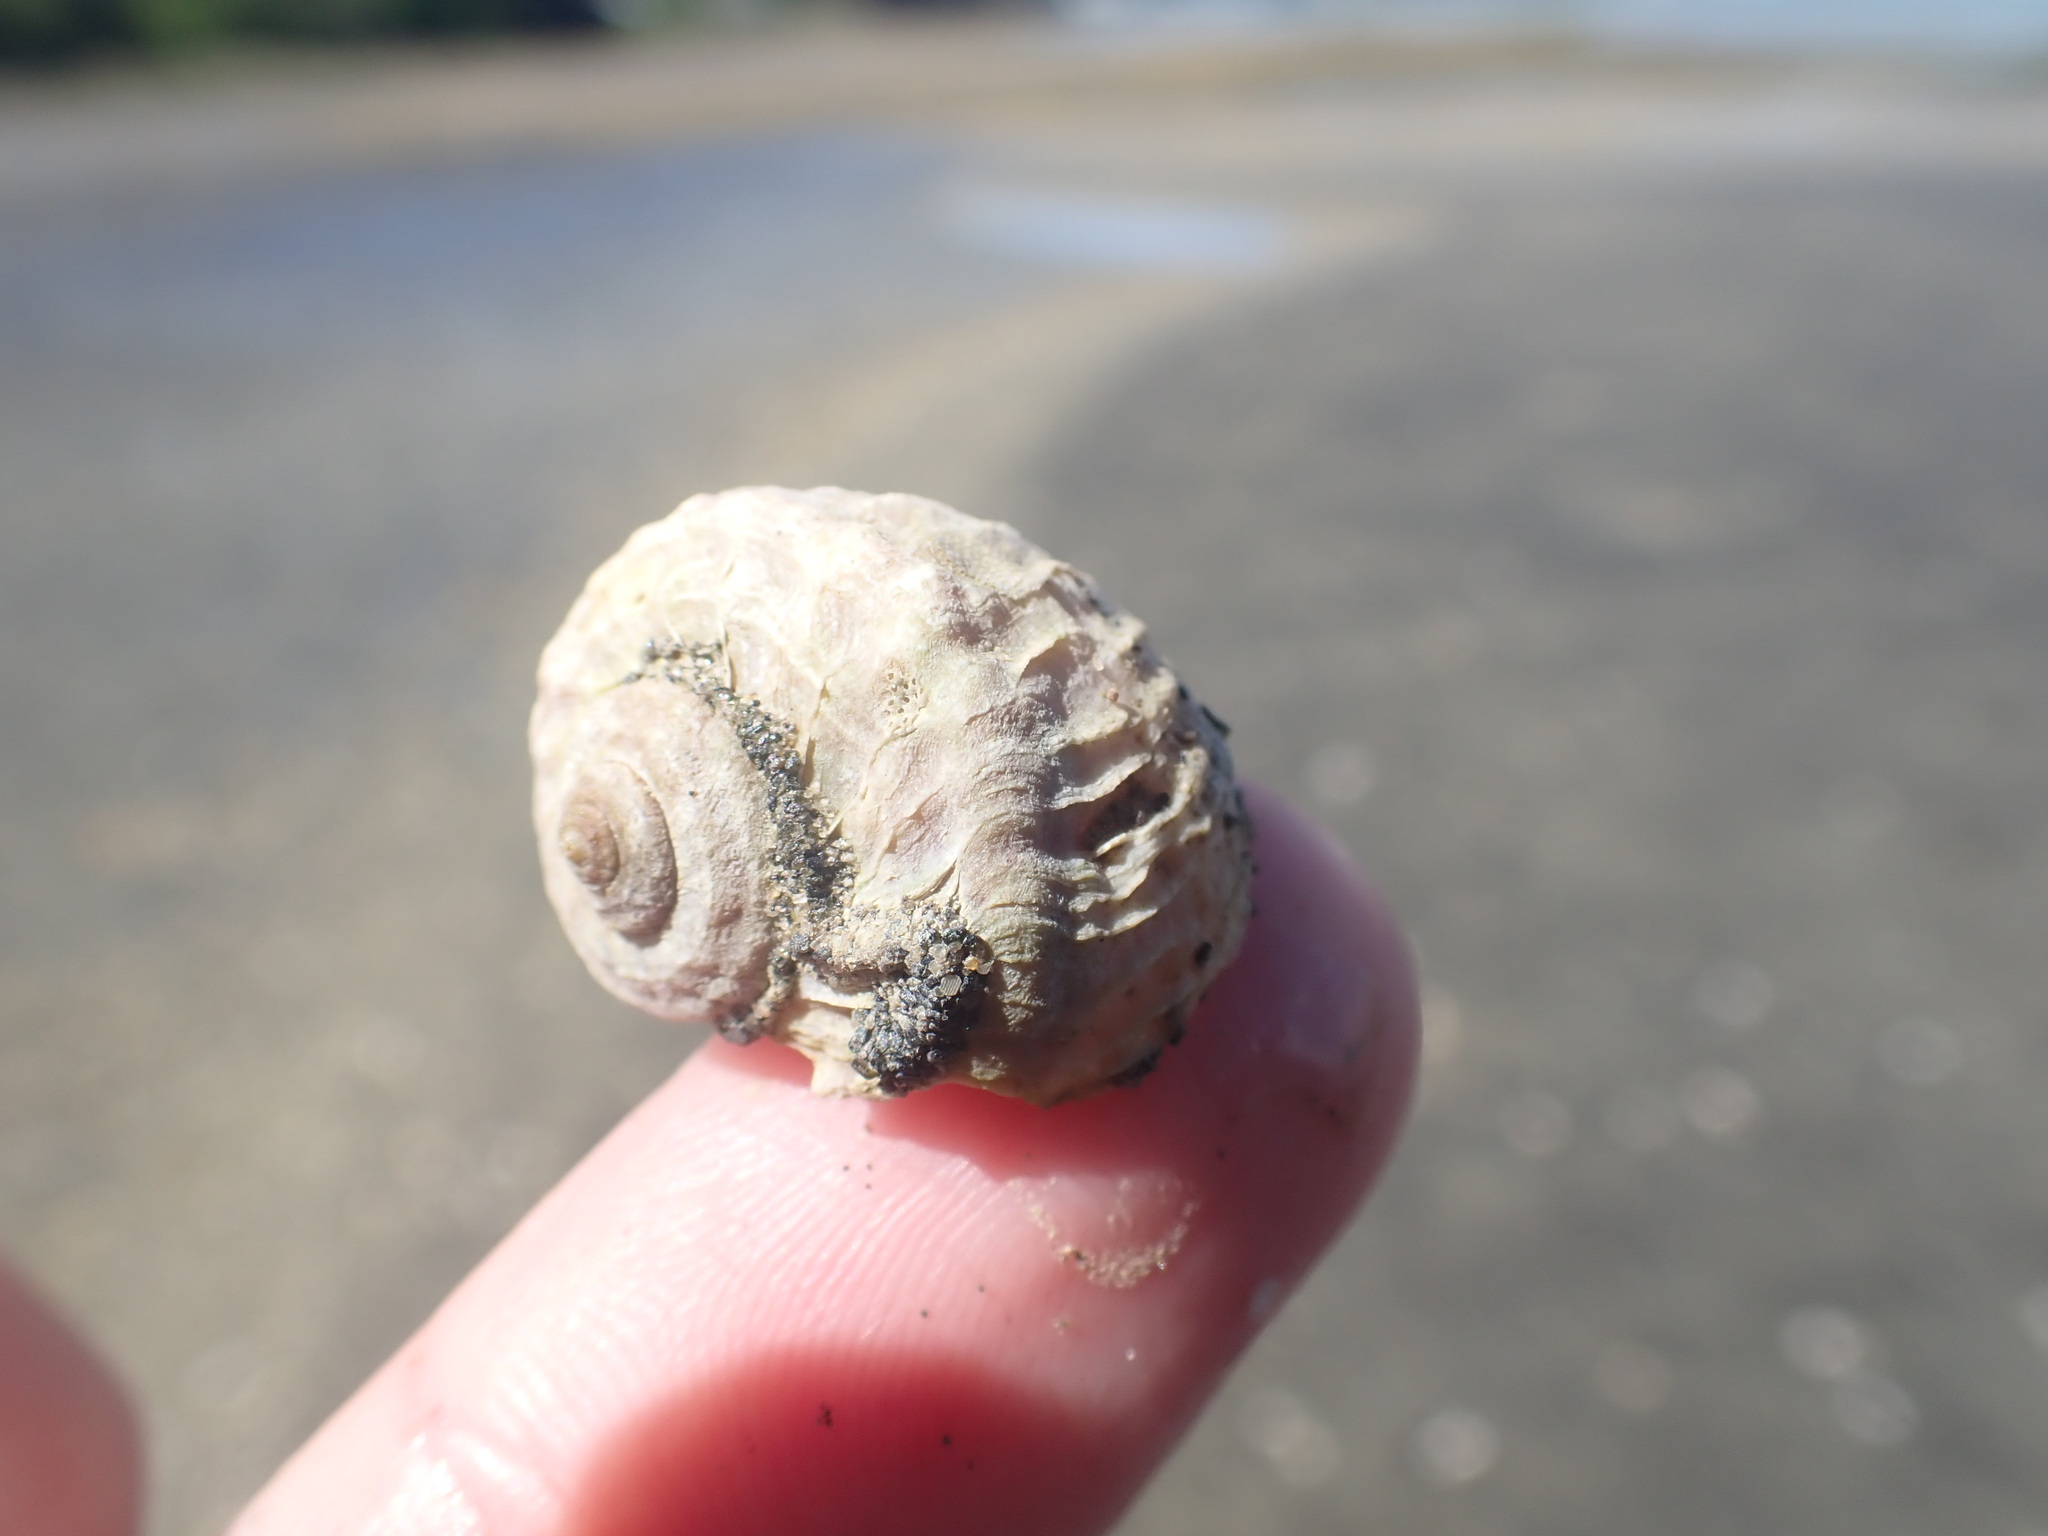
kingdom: Animalia
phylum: Mollusca
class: Gastropoda
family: Amphibolidae
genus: Amphibola
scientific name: Amphibola crenata
